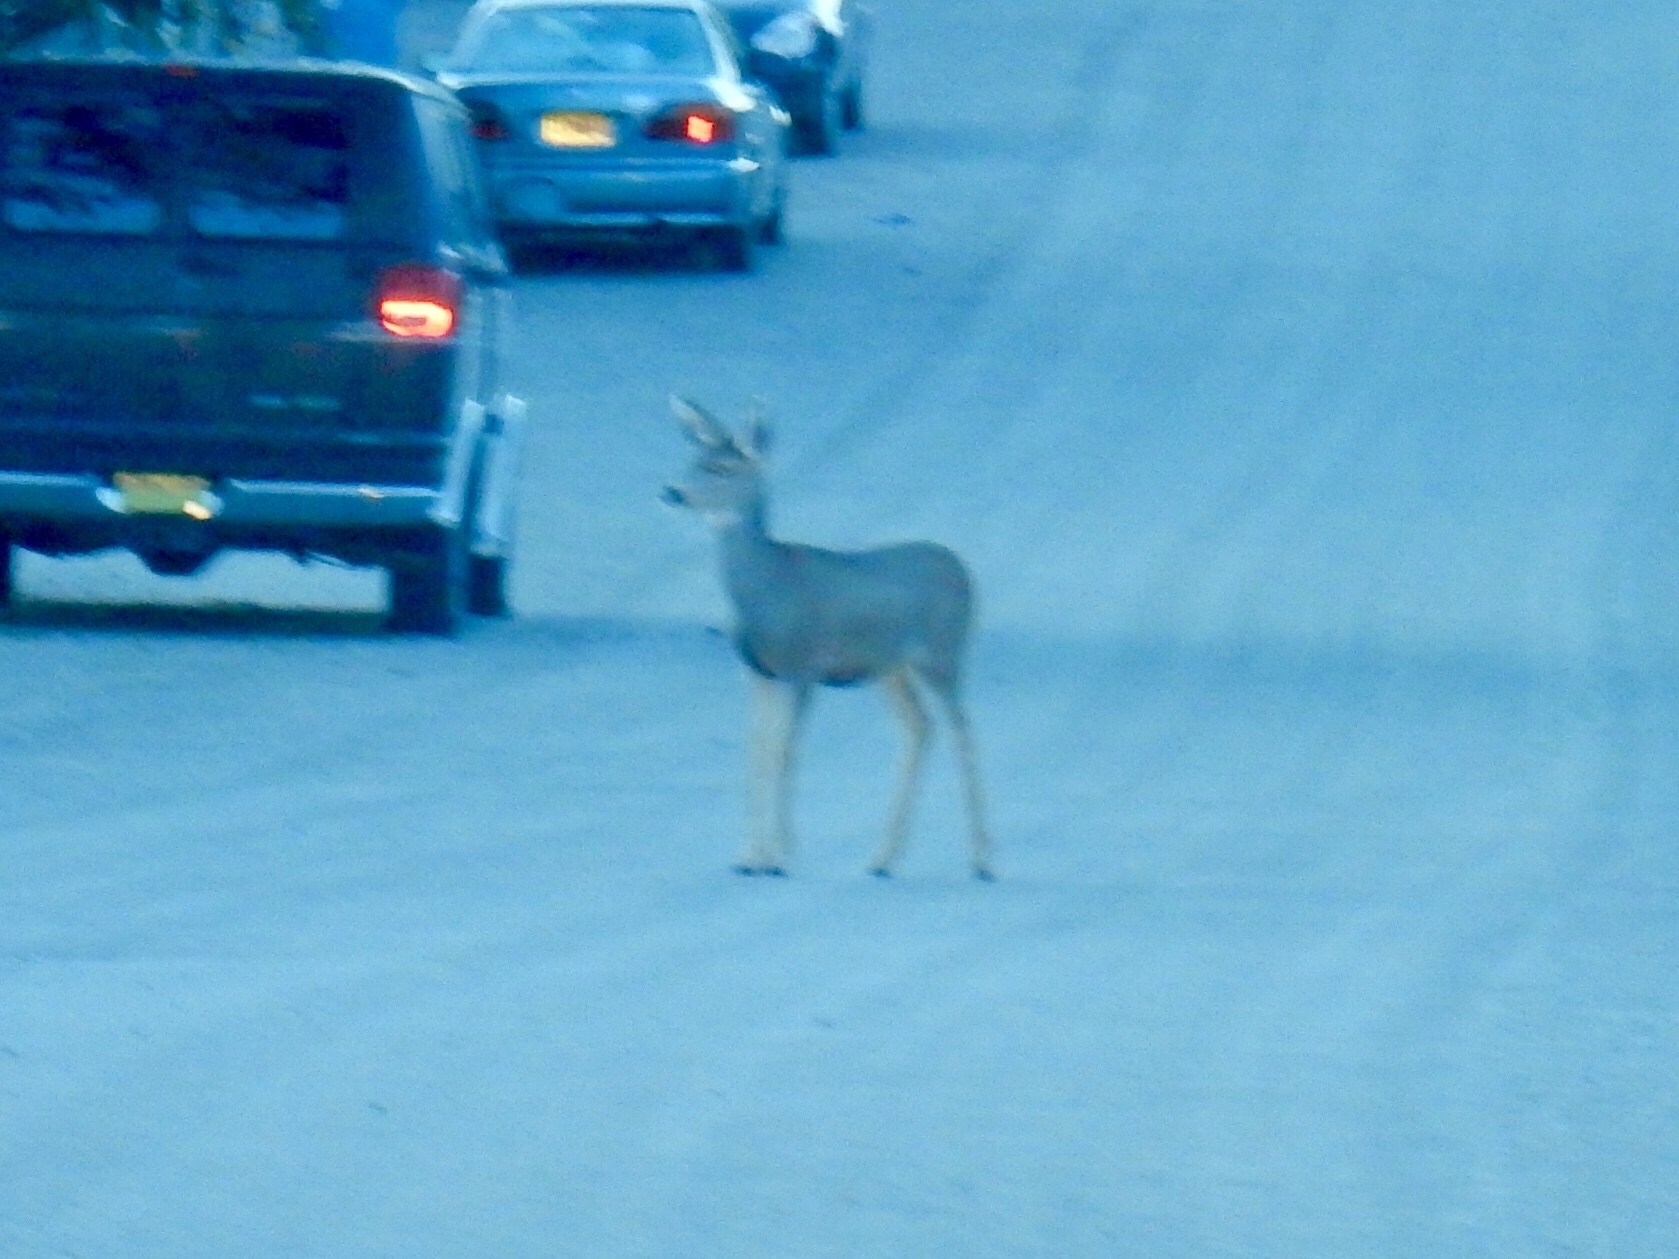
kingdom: Animalia
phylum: Chordata
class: Mammalia
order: Artiodactyla
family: Cervidae
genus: Odocoileus
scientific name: Odocoileus hemionus
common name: Mule deer
